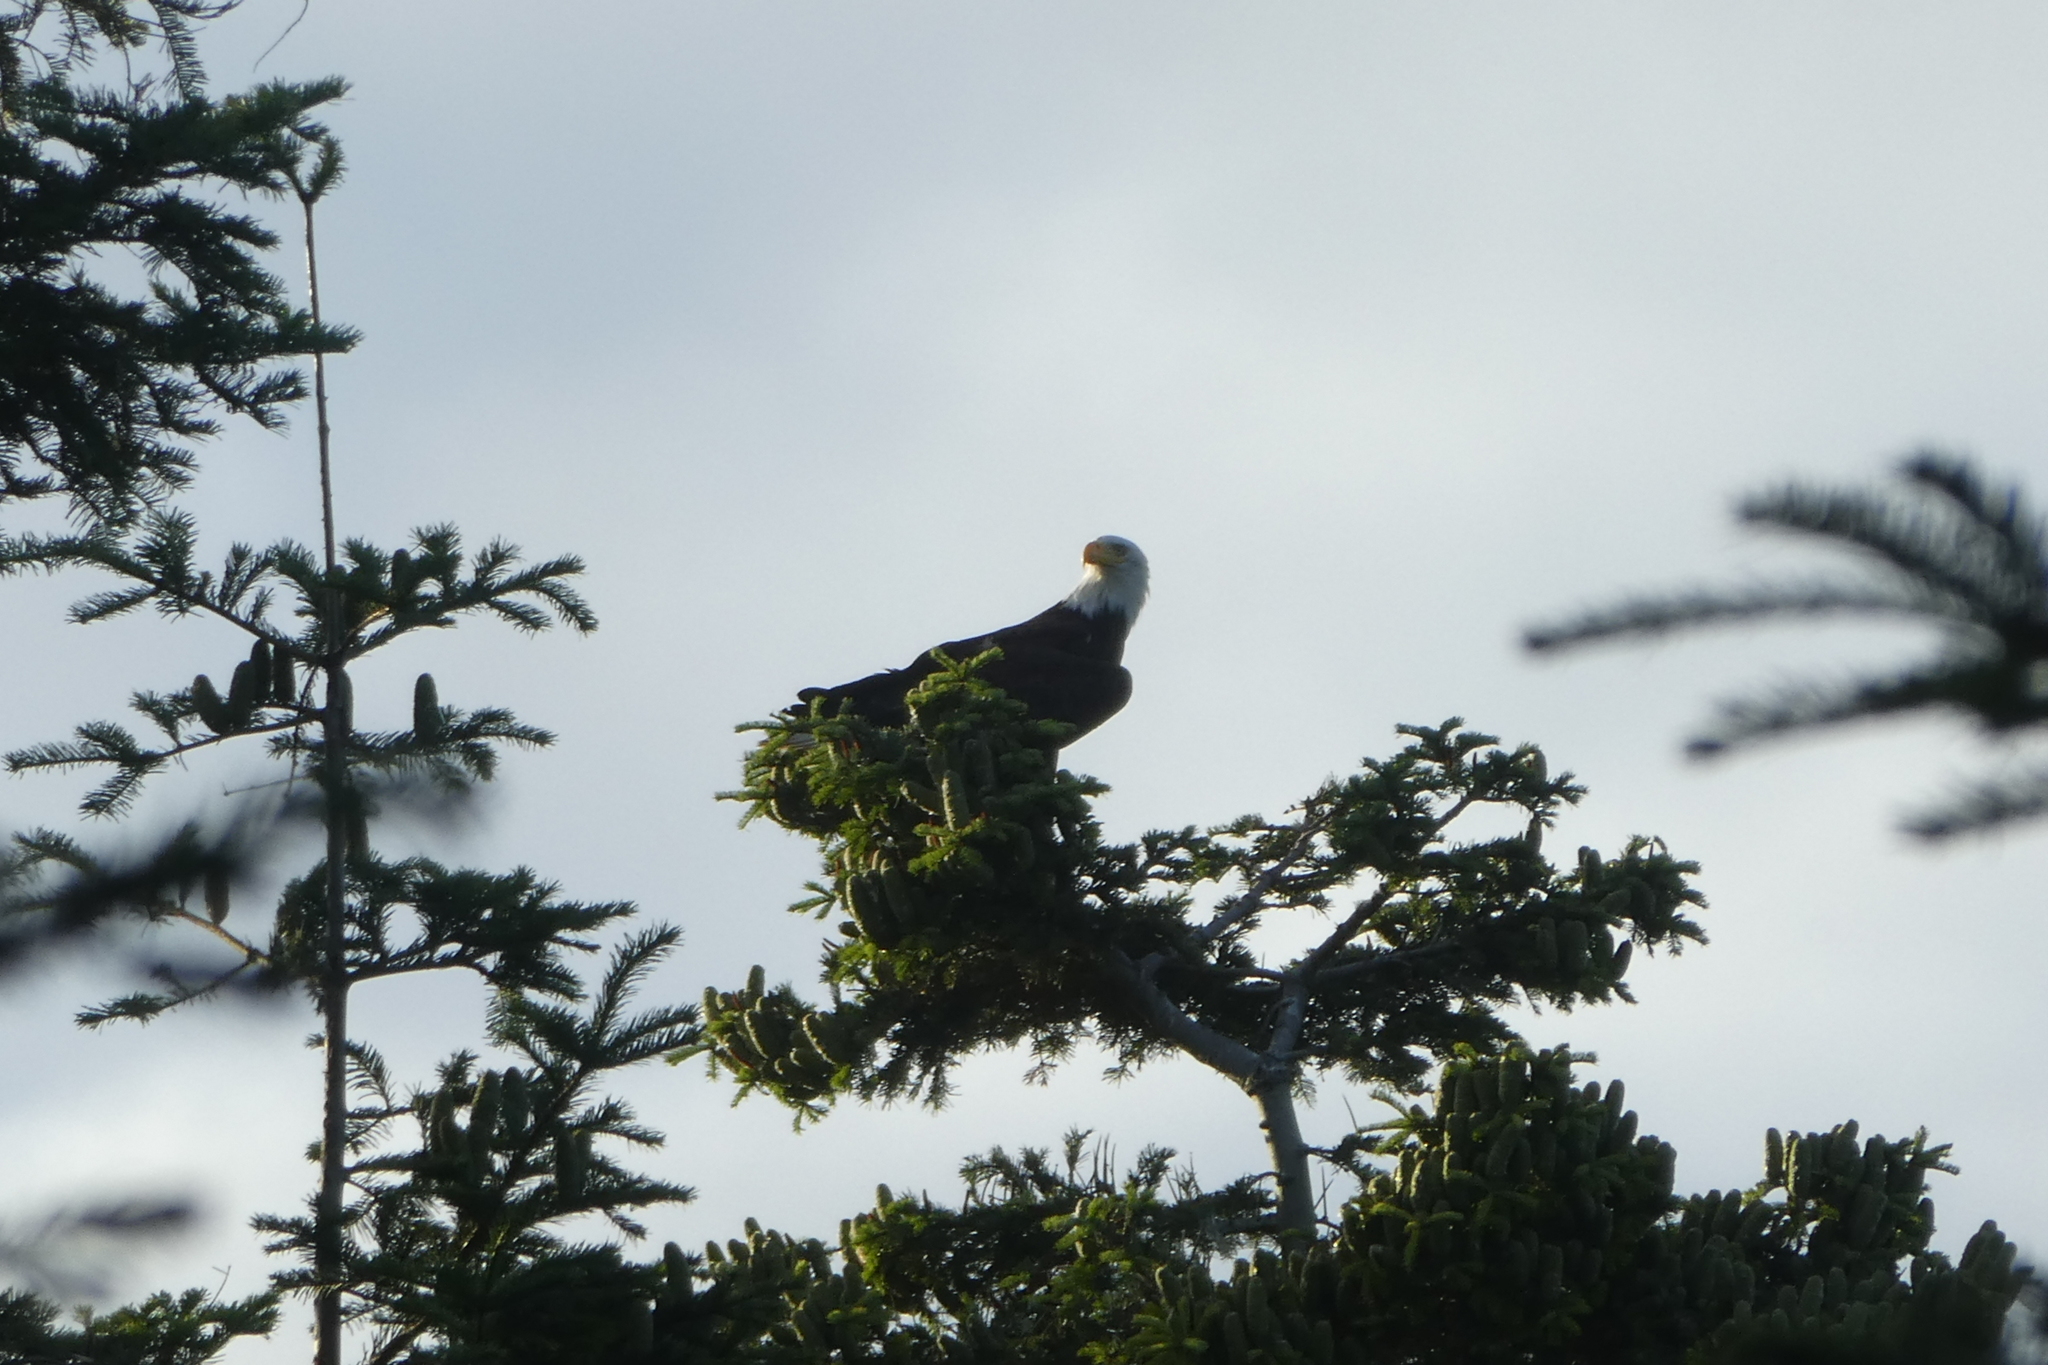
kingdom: Animalia
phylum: Chordata
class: Aves
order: Accipitriformes
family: Accipitridae
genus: Haliaeetus
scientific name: Haliaeetus leucocephalus
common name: Bald eagle
